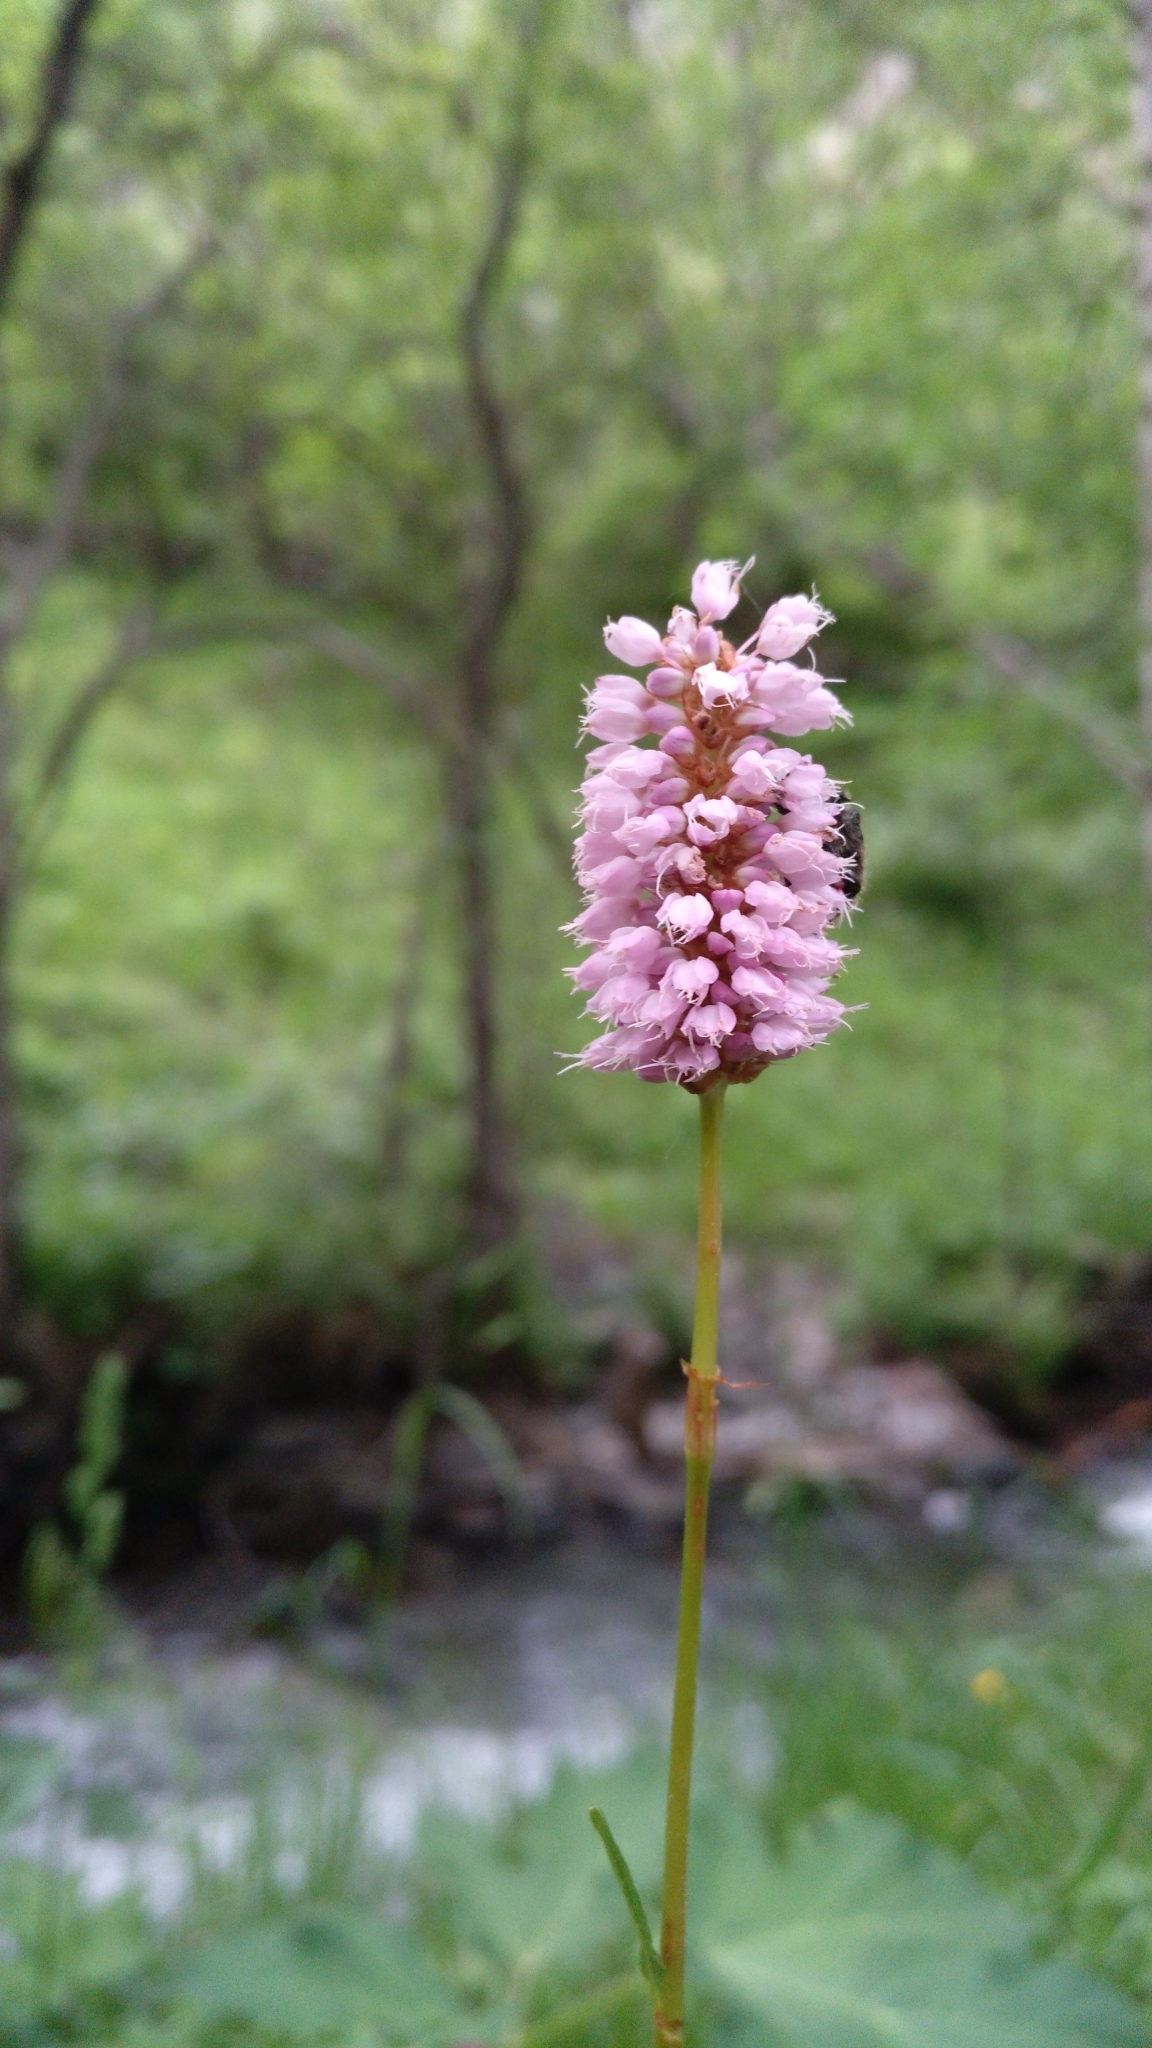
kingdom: Plantae
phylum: Tracheophyta
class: Magnoliopsida
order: Caryophyllales
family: Polygonaceae
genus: Bistorta
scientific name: Bistorta officinalis
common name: Common bistort
